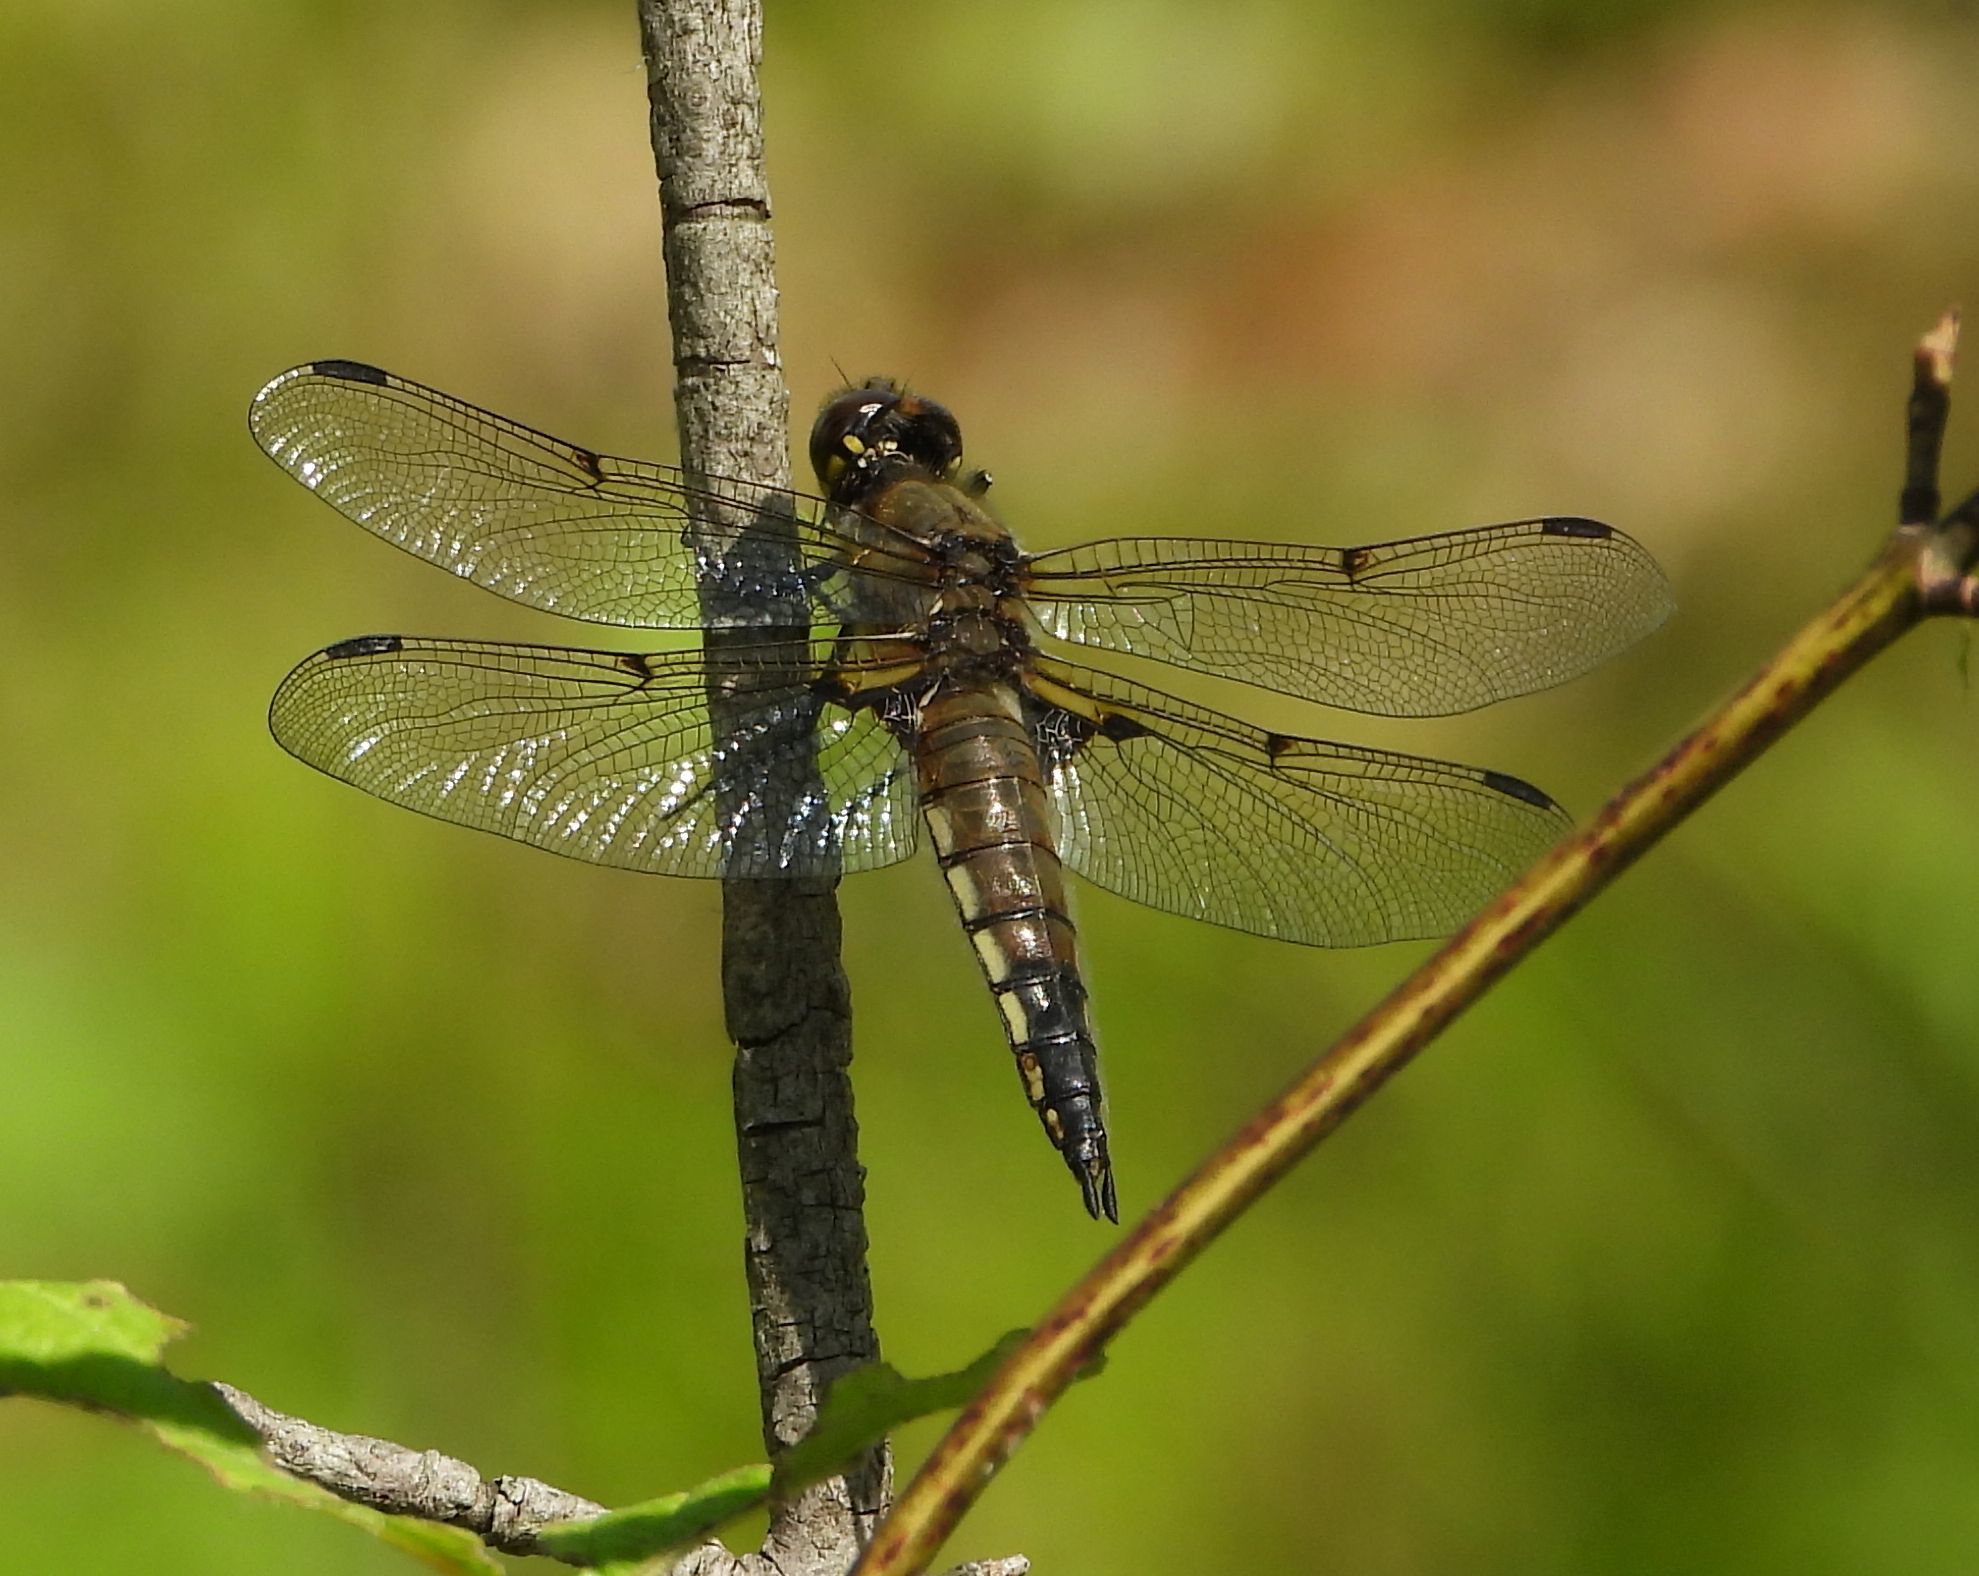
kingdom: Animalia
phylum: Arthropoda
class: Insecta
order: Odonata
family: Libellulidae
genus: Libellula
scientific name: Libellula quadrimaculata
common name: Four-spotted chaser
